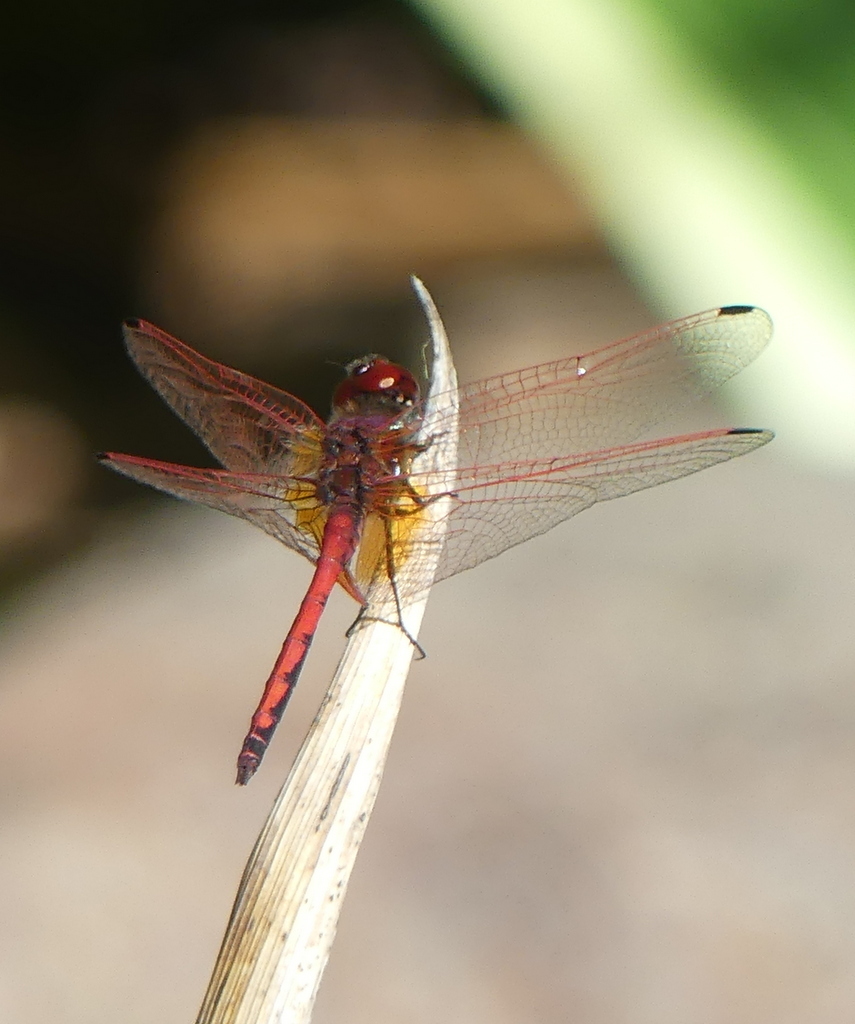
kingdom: Animalia
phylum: Arthropoda
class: Insecta
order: Odonata
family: Libellulidae
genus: Trithemis
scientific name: Trithemis arteriosa
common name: Red-veined dropwing
